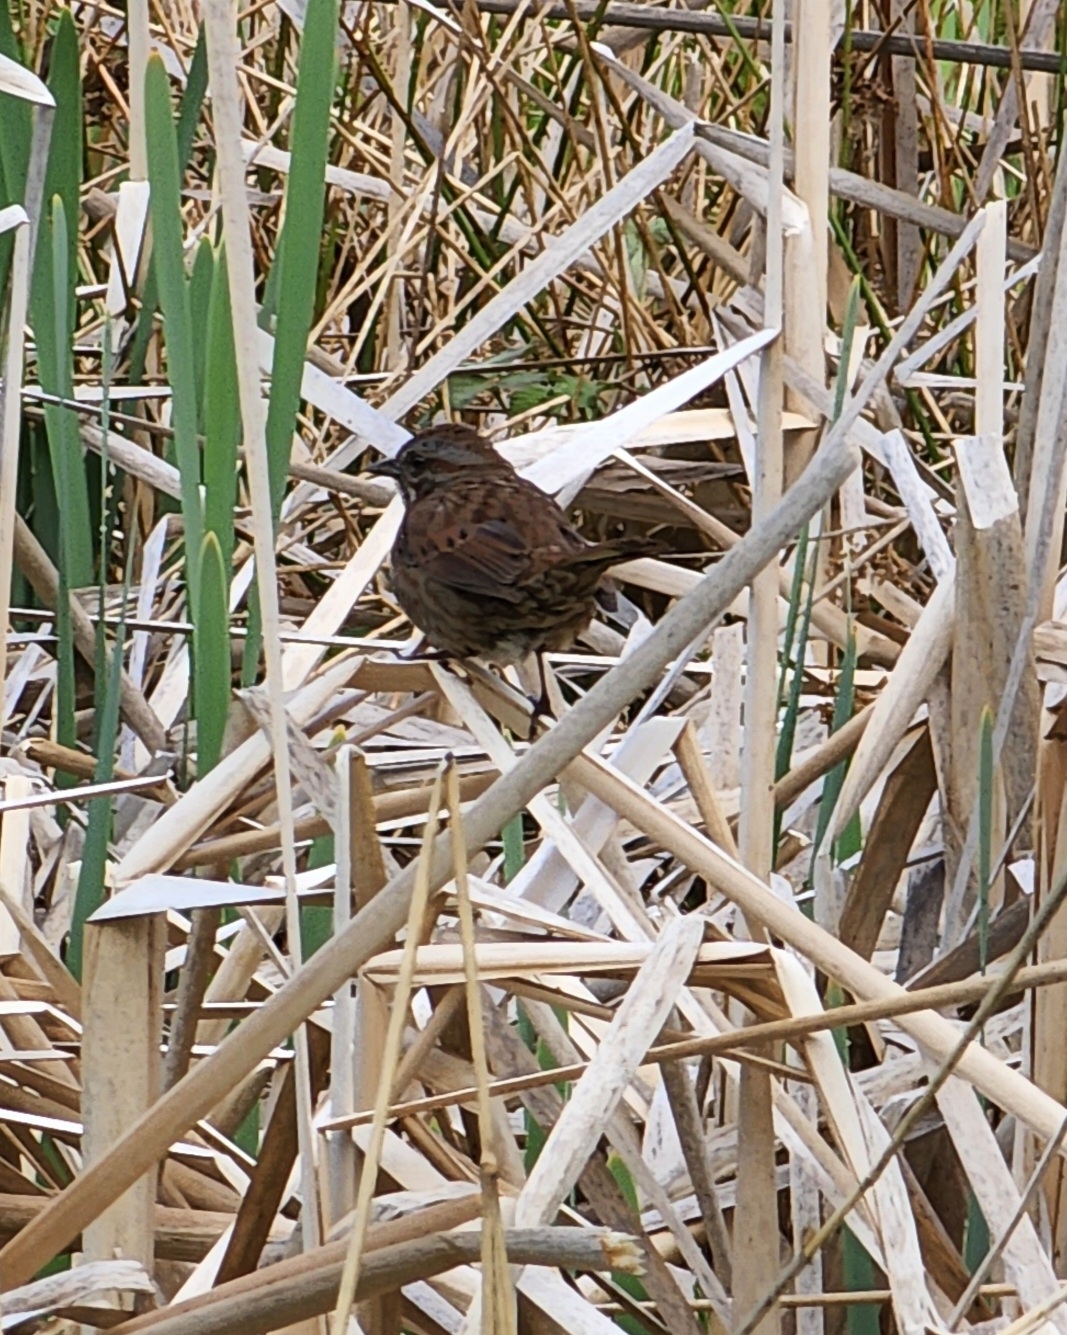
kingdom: Animalia
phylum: Chordata
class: Aves
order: Passeriformes
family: Passerellidae
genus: Melospiza
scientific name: Melospiza melodia
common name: Song sparrow
